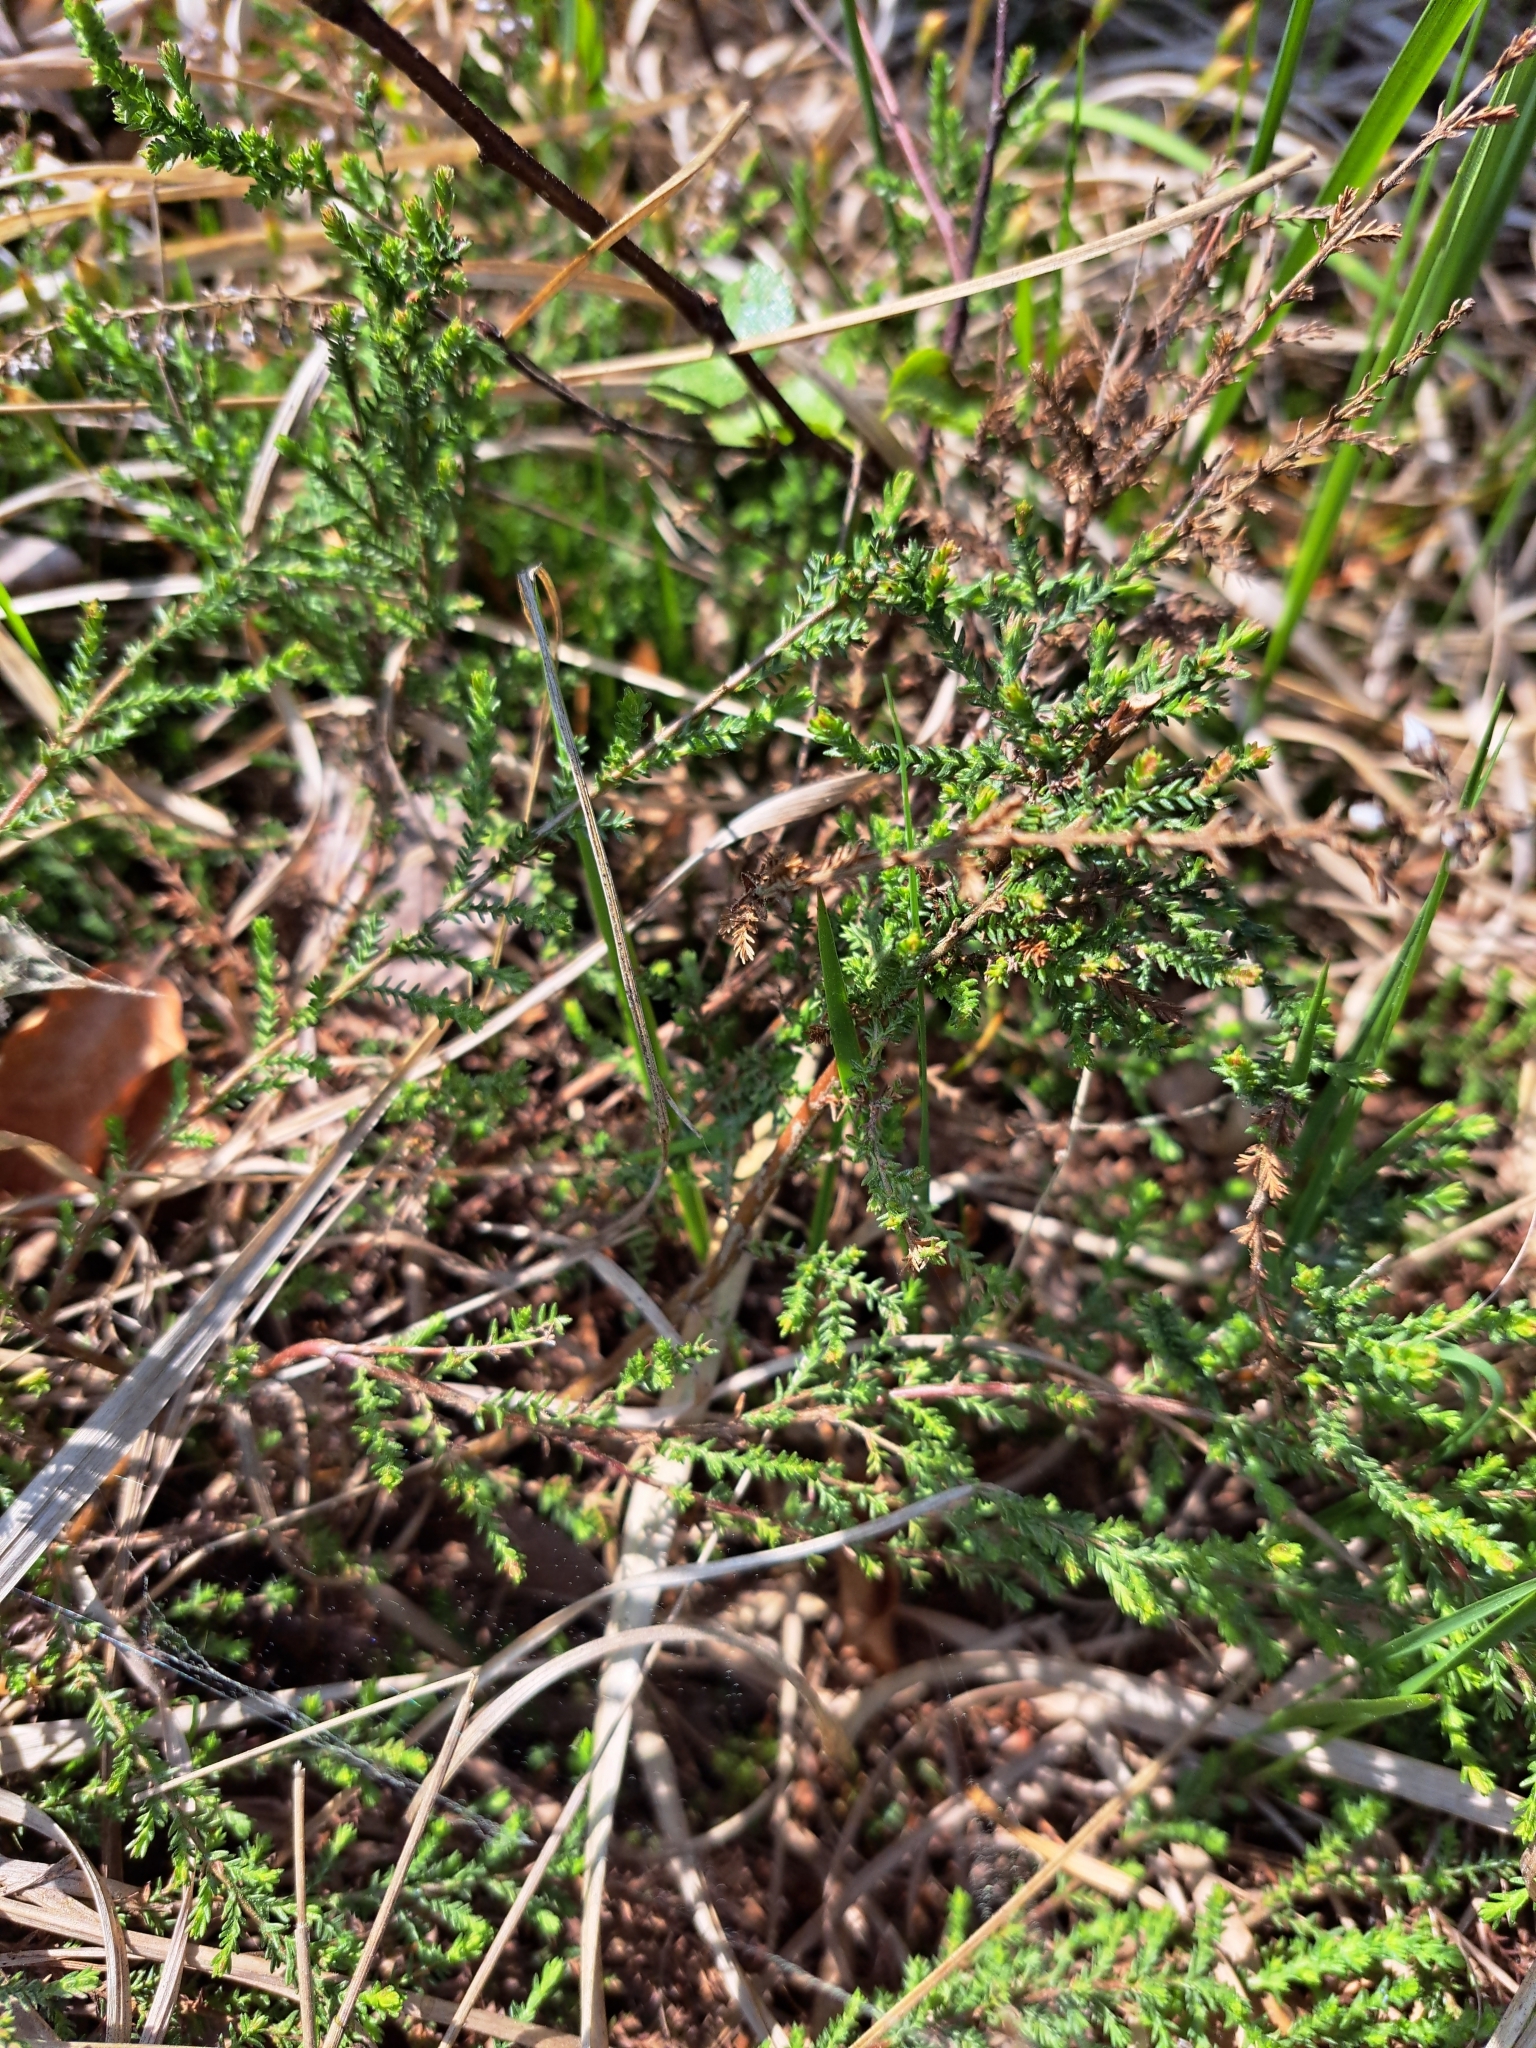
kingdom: Plantae
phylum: Tracheophyta
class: Magnoliopsida
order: Ericales
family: Ericaceae
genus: Calluna
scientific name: Calluna vulgaris
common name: Heather
